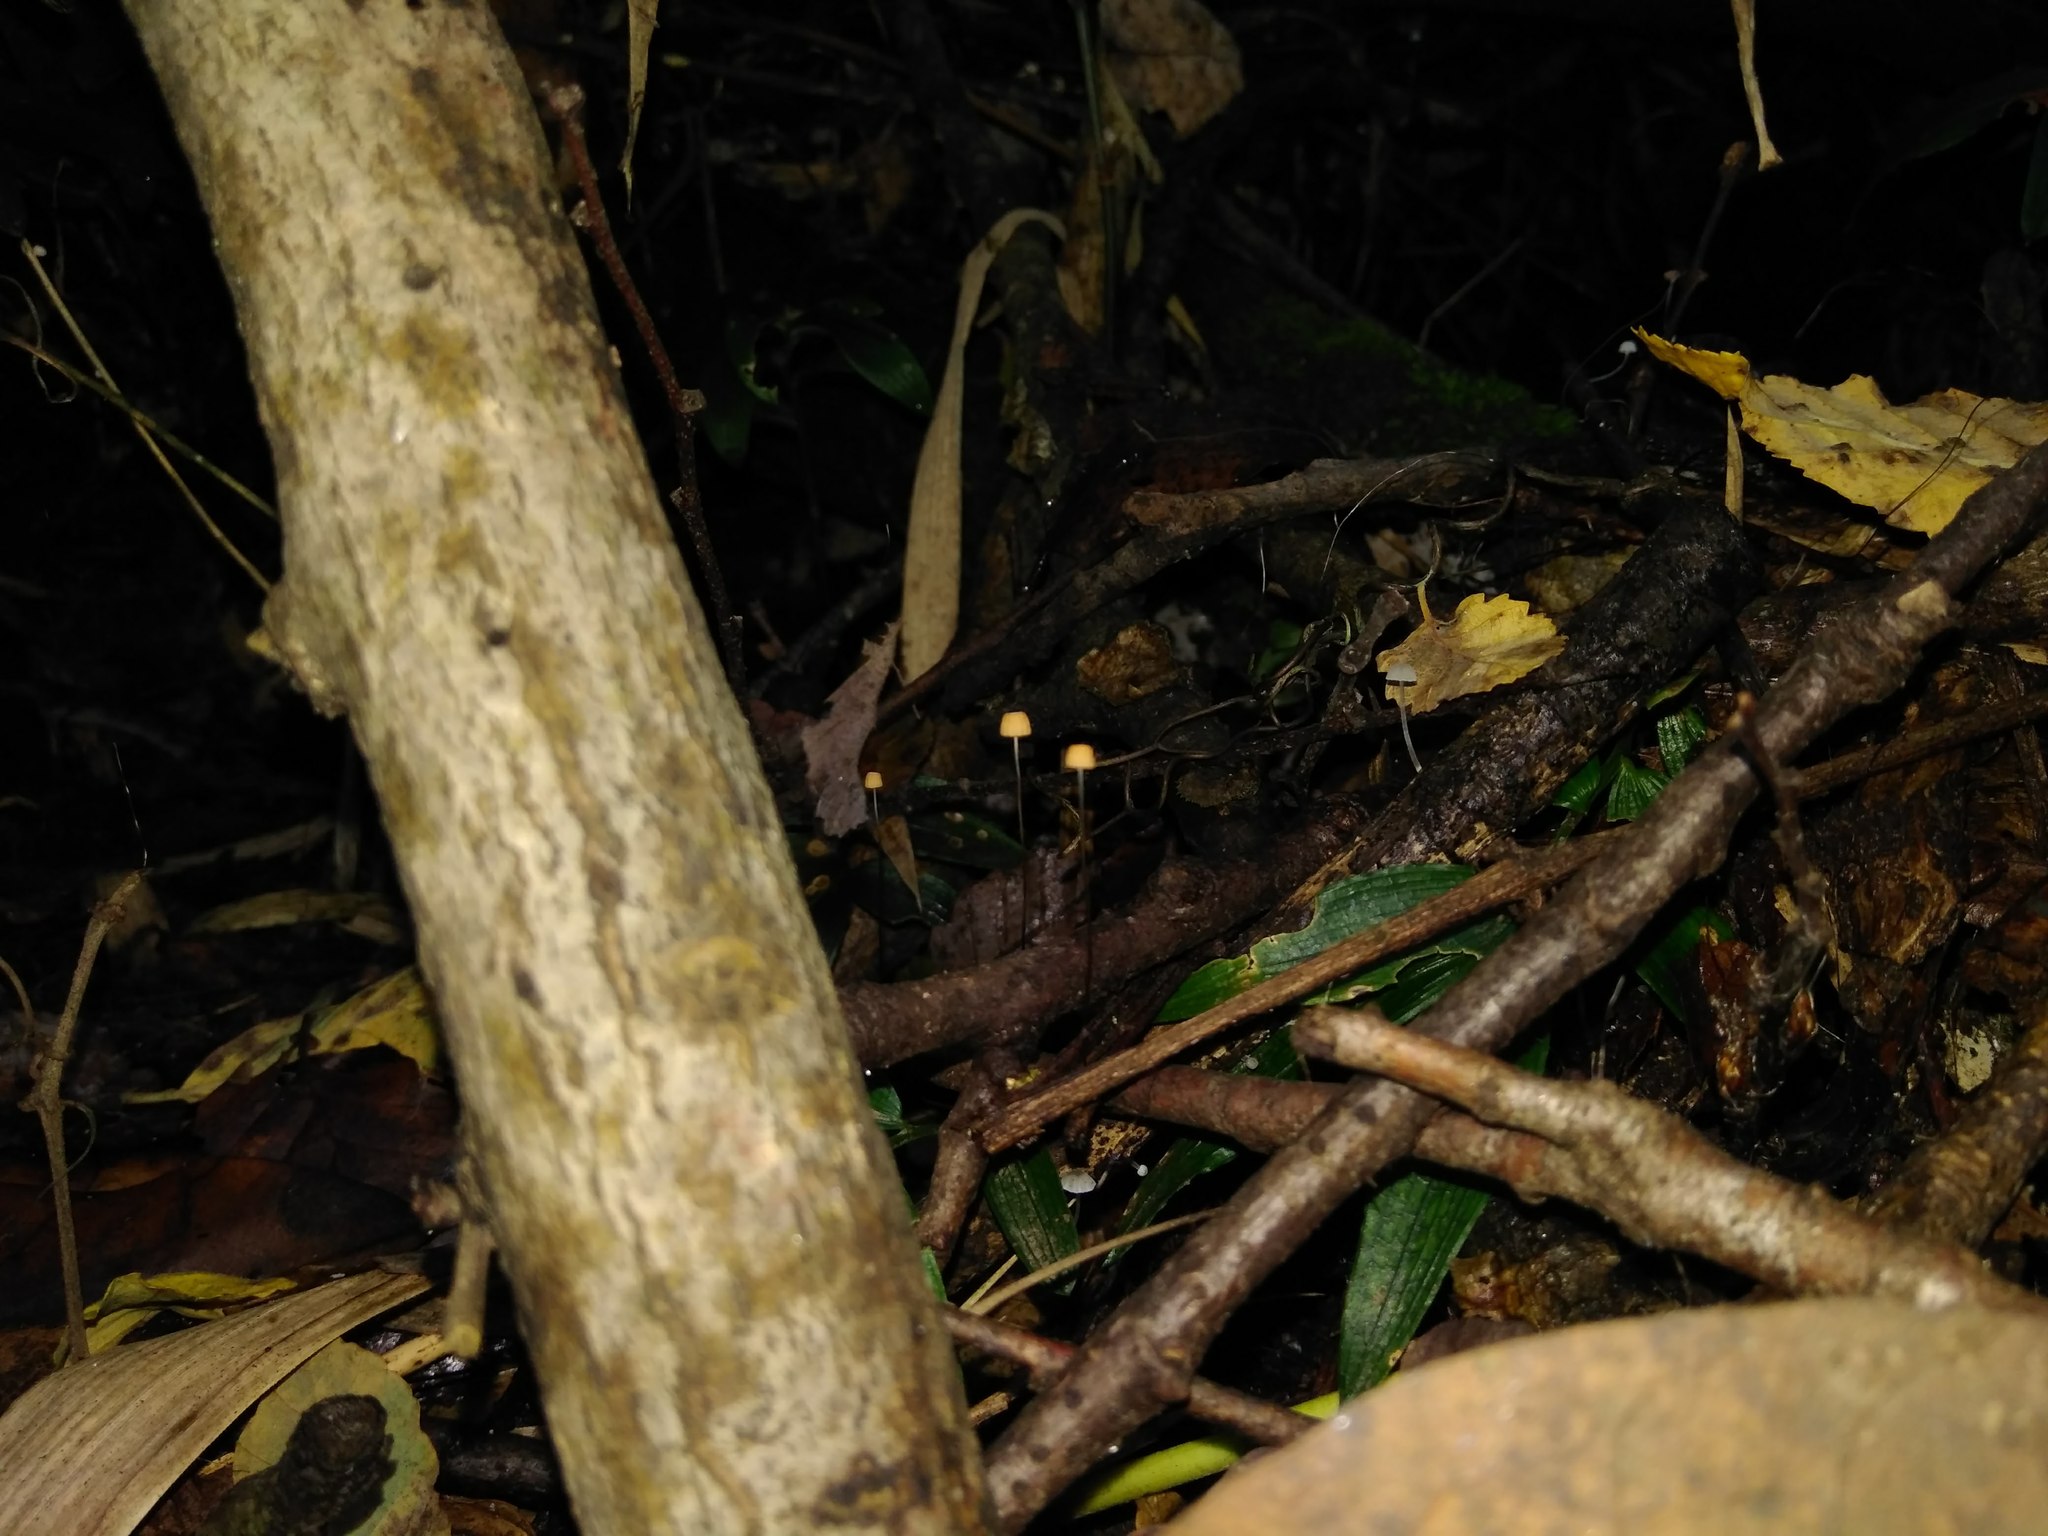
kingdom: Fungi
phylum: Basidiomycota
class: Agaricomycetes
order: Agaricales
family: Marasmiaceae
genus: Marasmius
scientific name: Marasmius nothomyrciae
